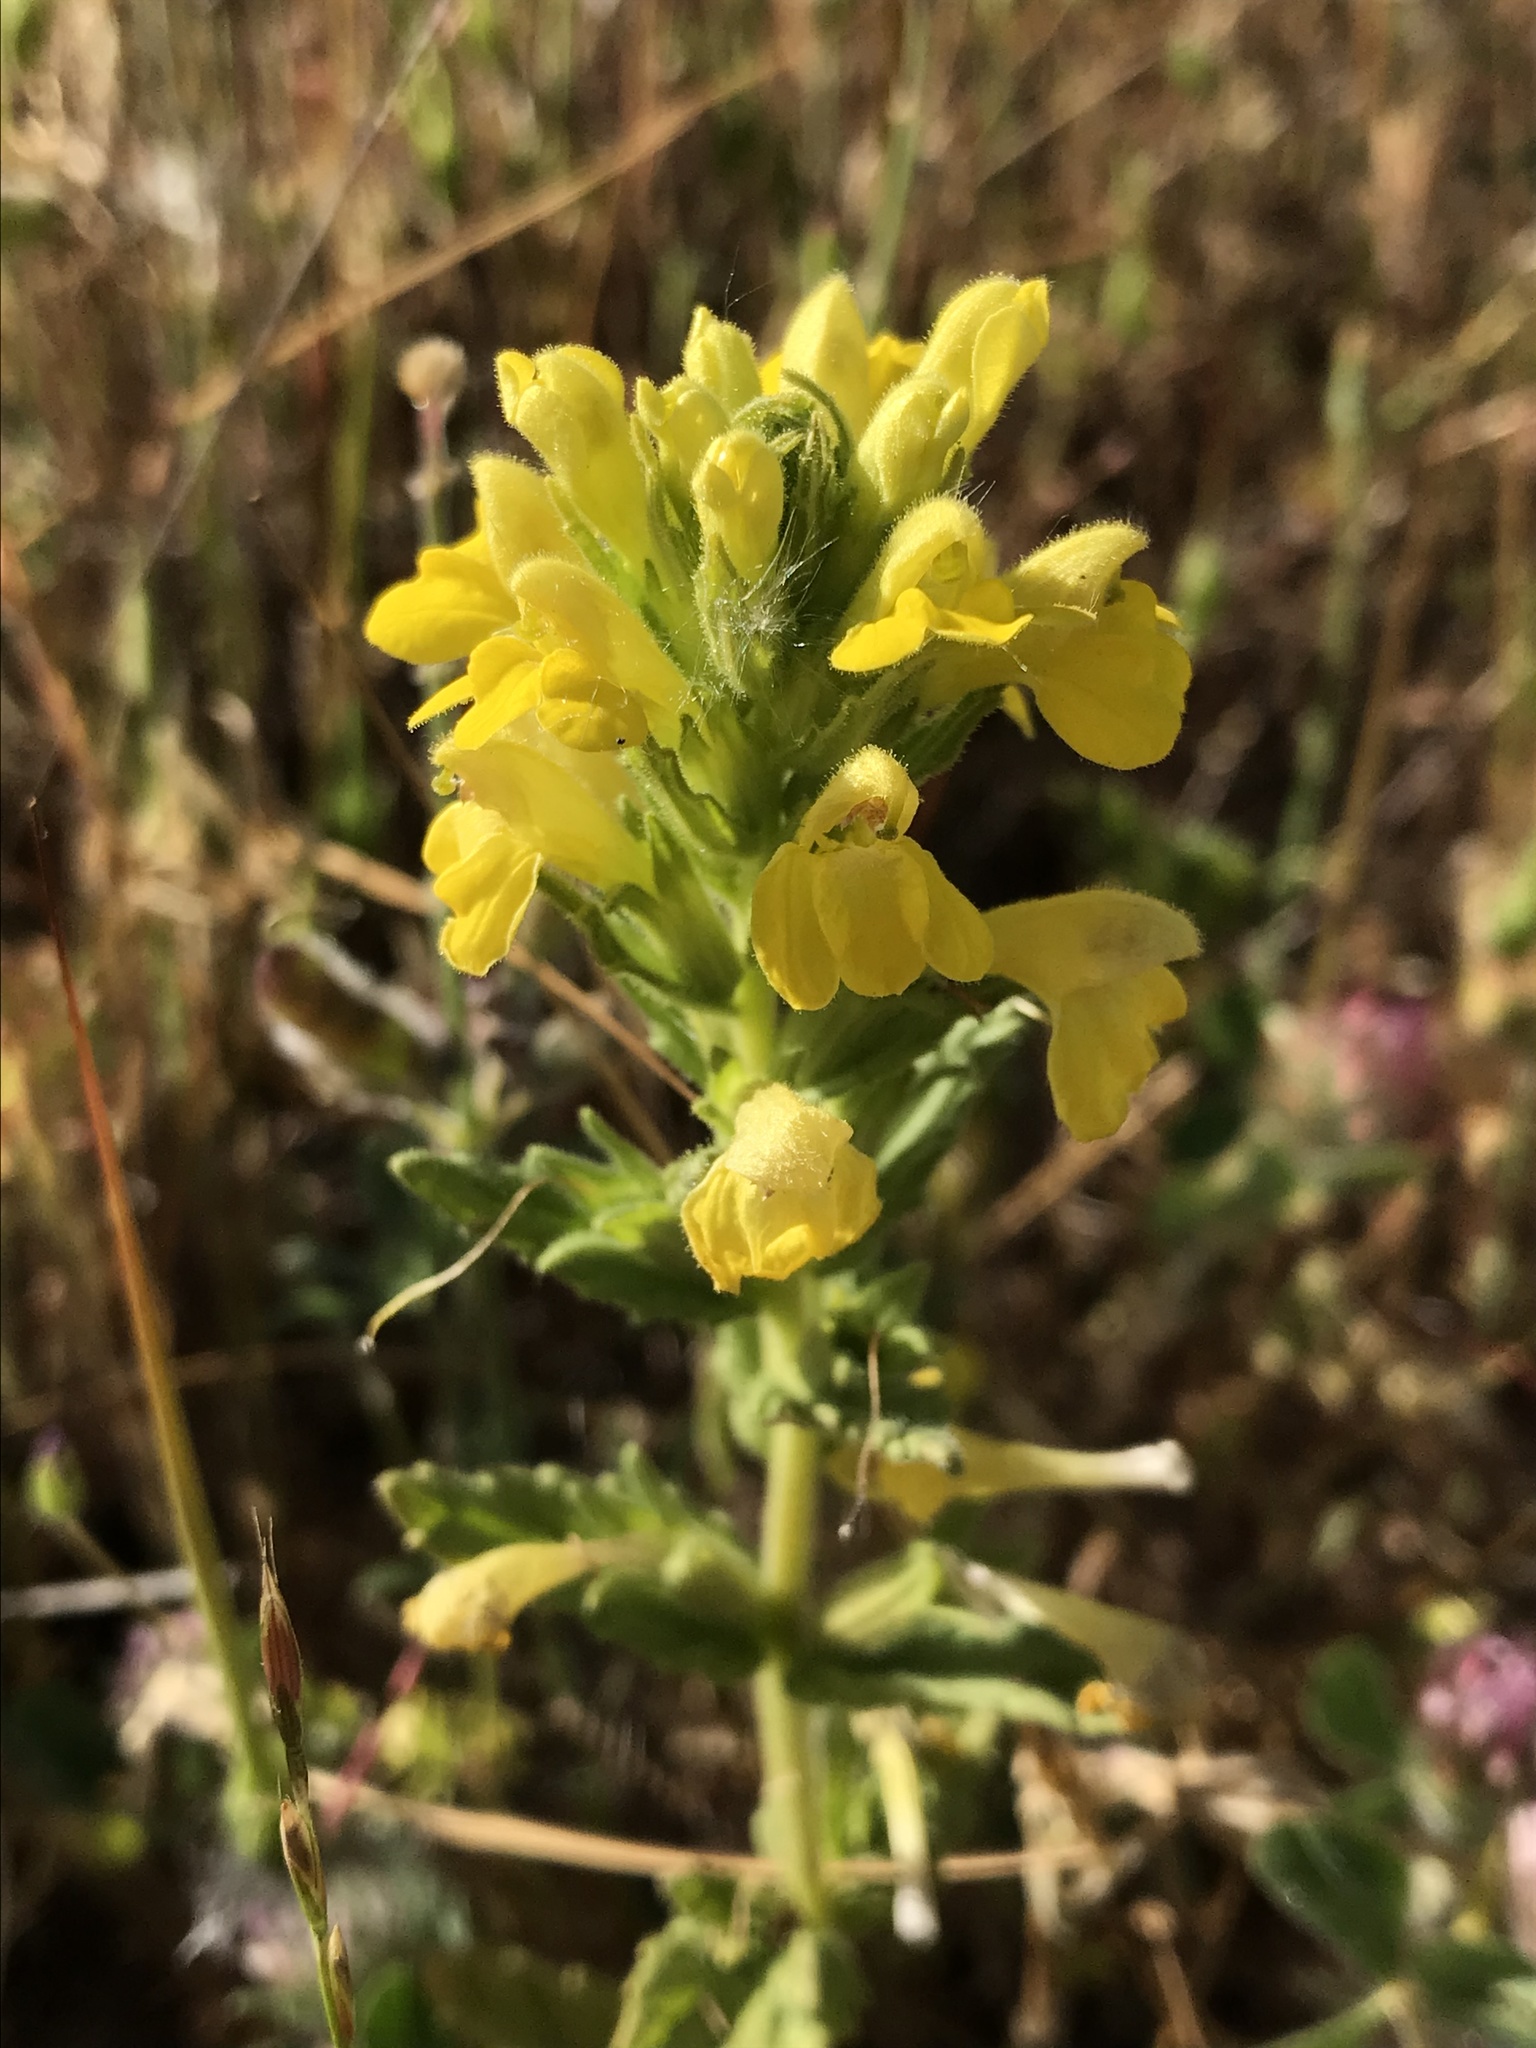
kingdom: Plantae
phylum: Tracheophyta
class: Magnoliopsida
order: Lamiales
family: Orobanchaceae
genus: Bellardia
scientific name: Bellardia viscosa
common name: Sticky parentucellia
